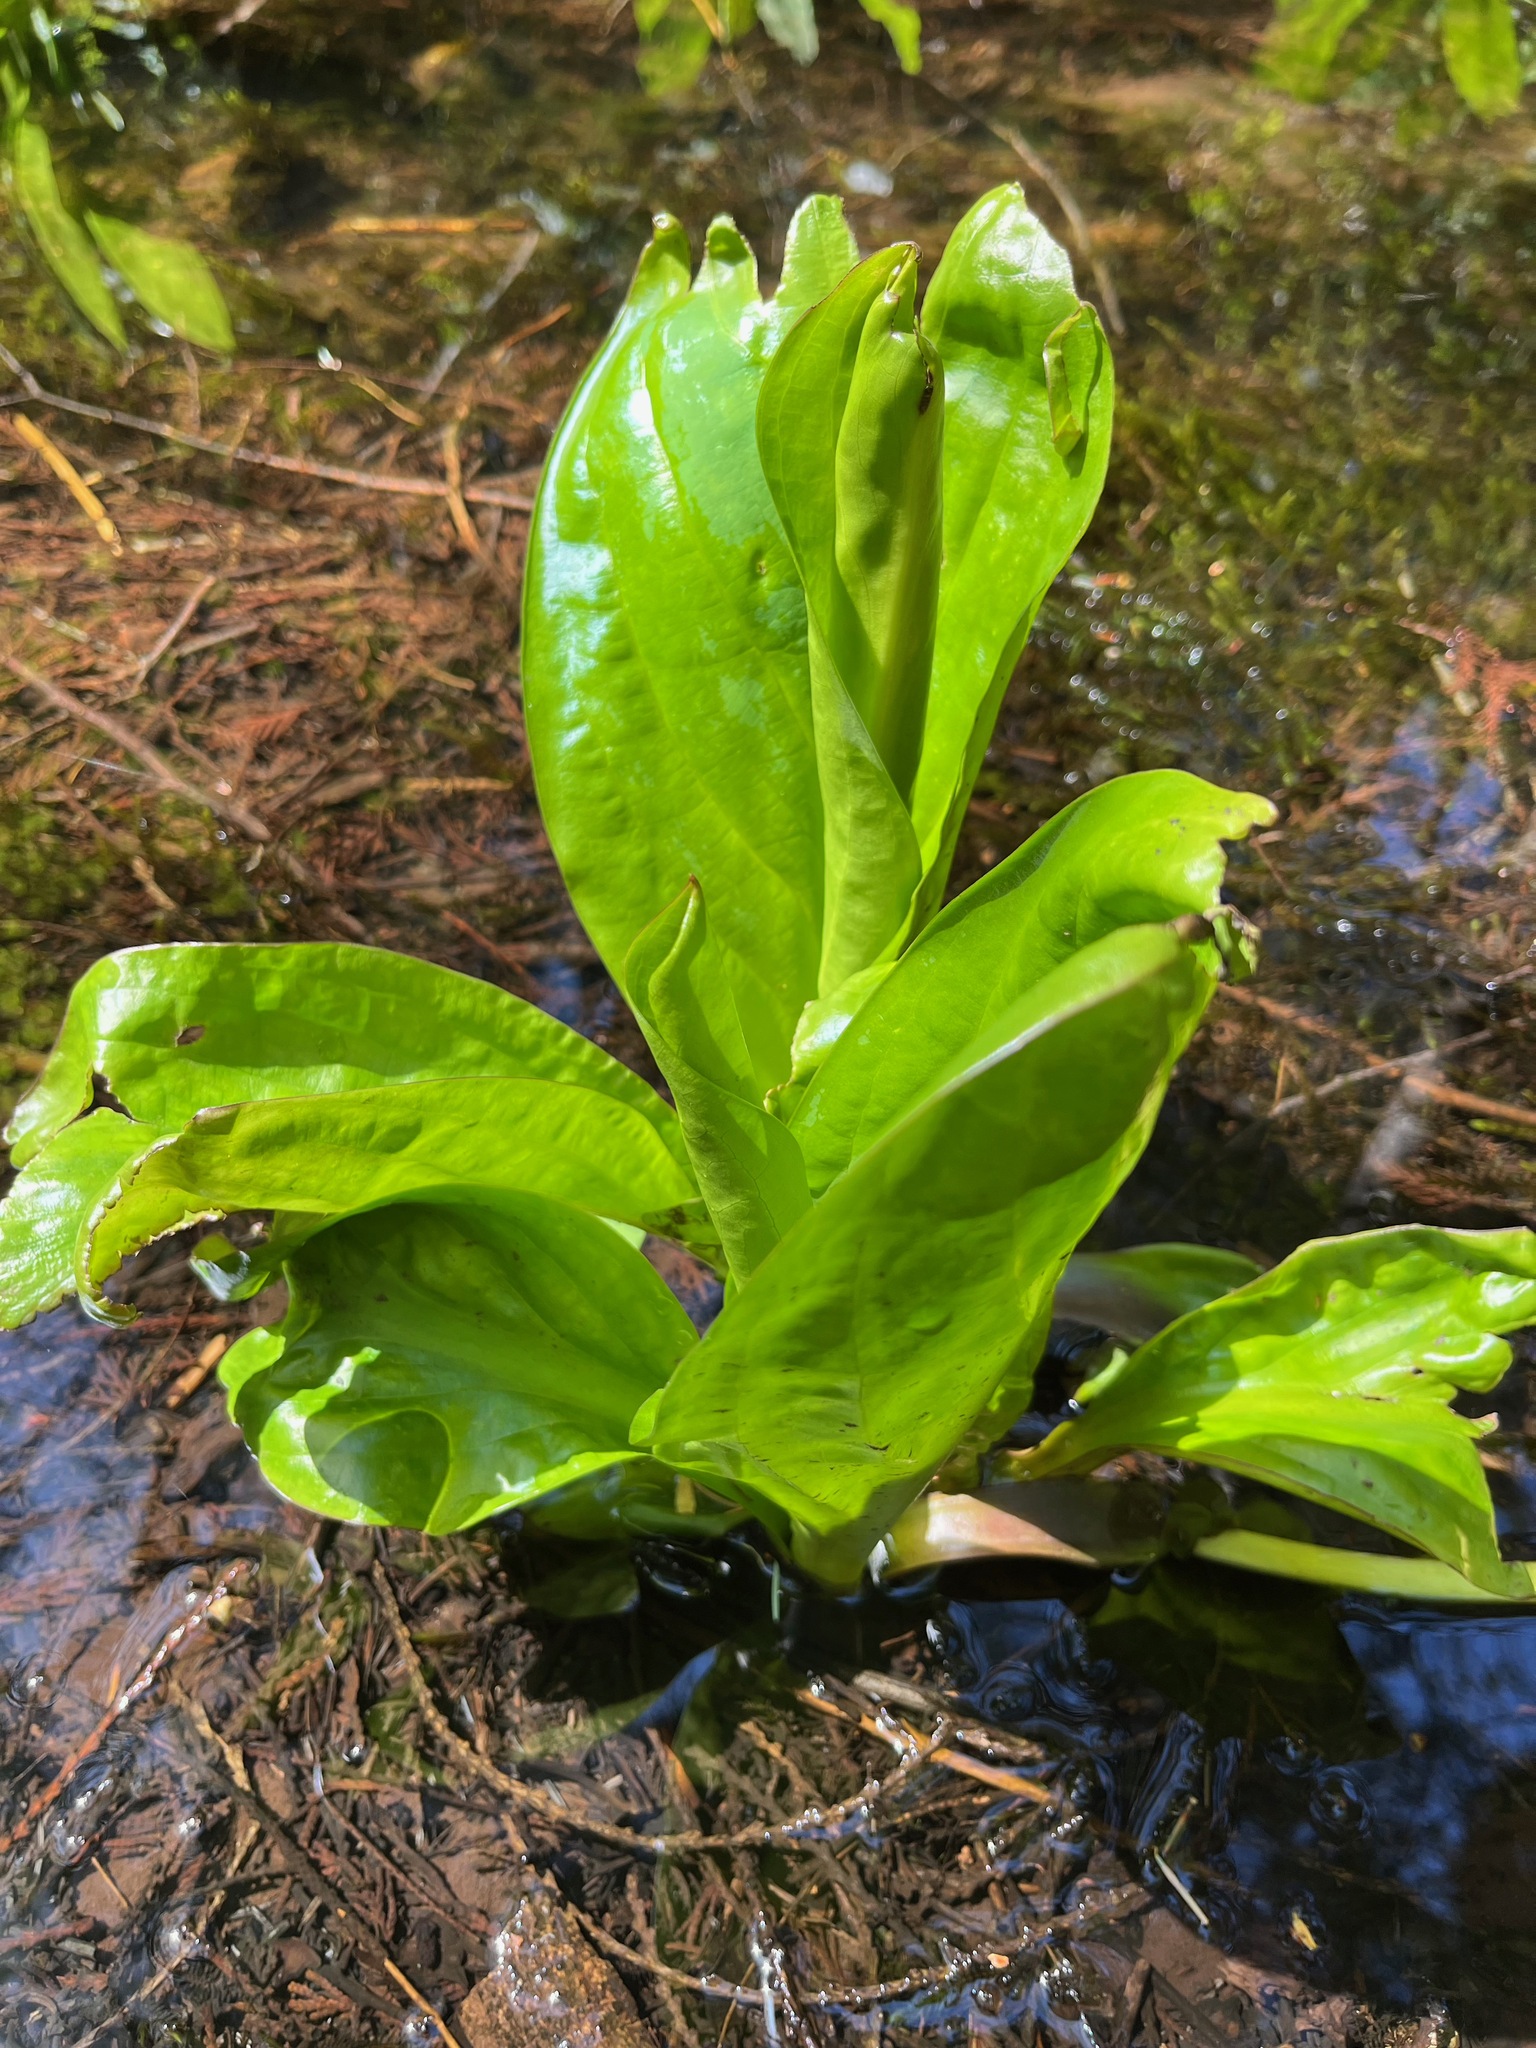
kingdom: Plantae
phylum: Tracheophyta
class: Liliopsida
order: Alismatales
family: Araceae
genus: Lysichiton
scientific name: Lysichiton americanus
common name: American skunk cabbage
